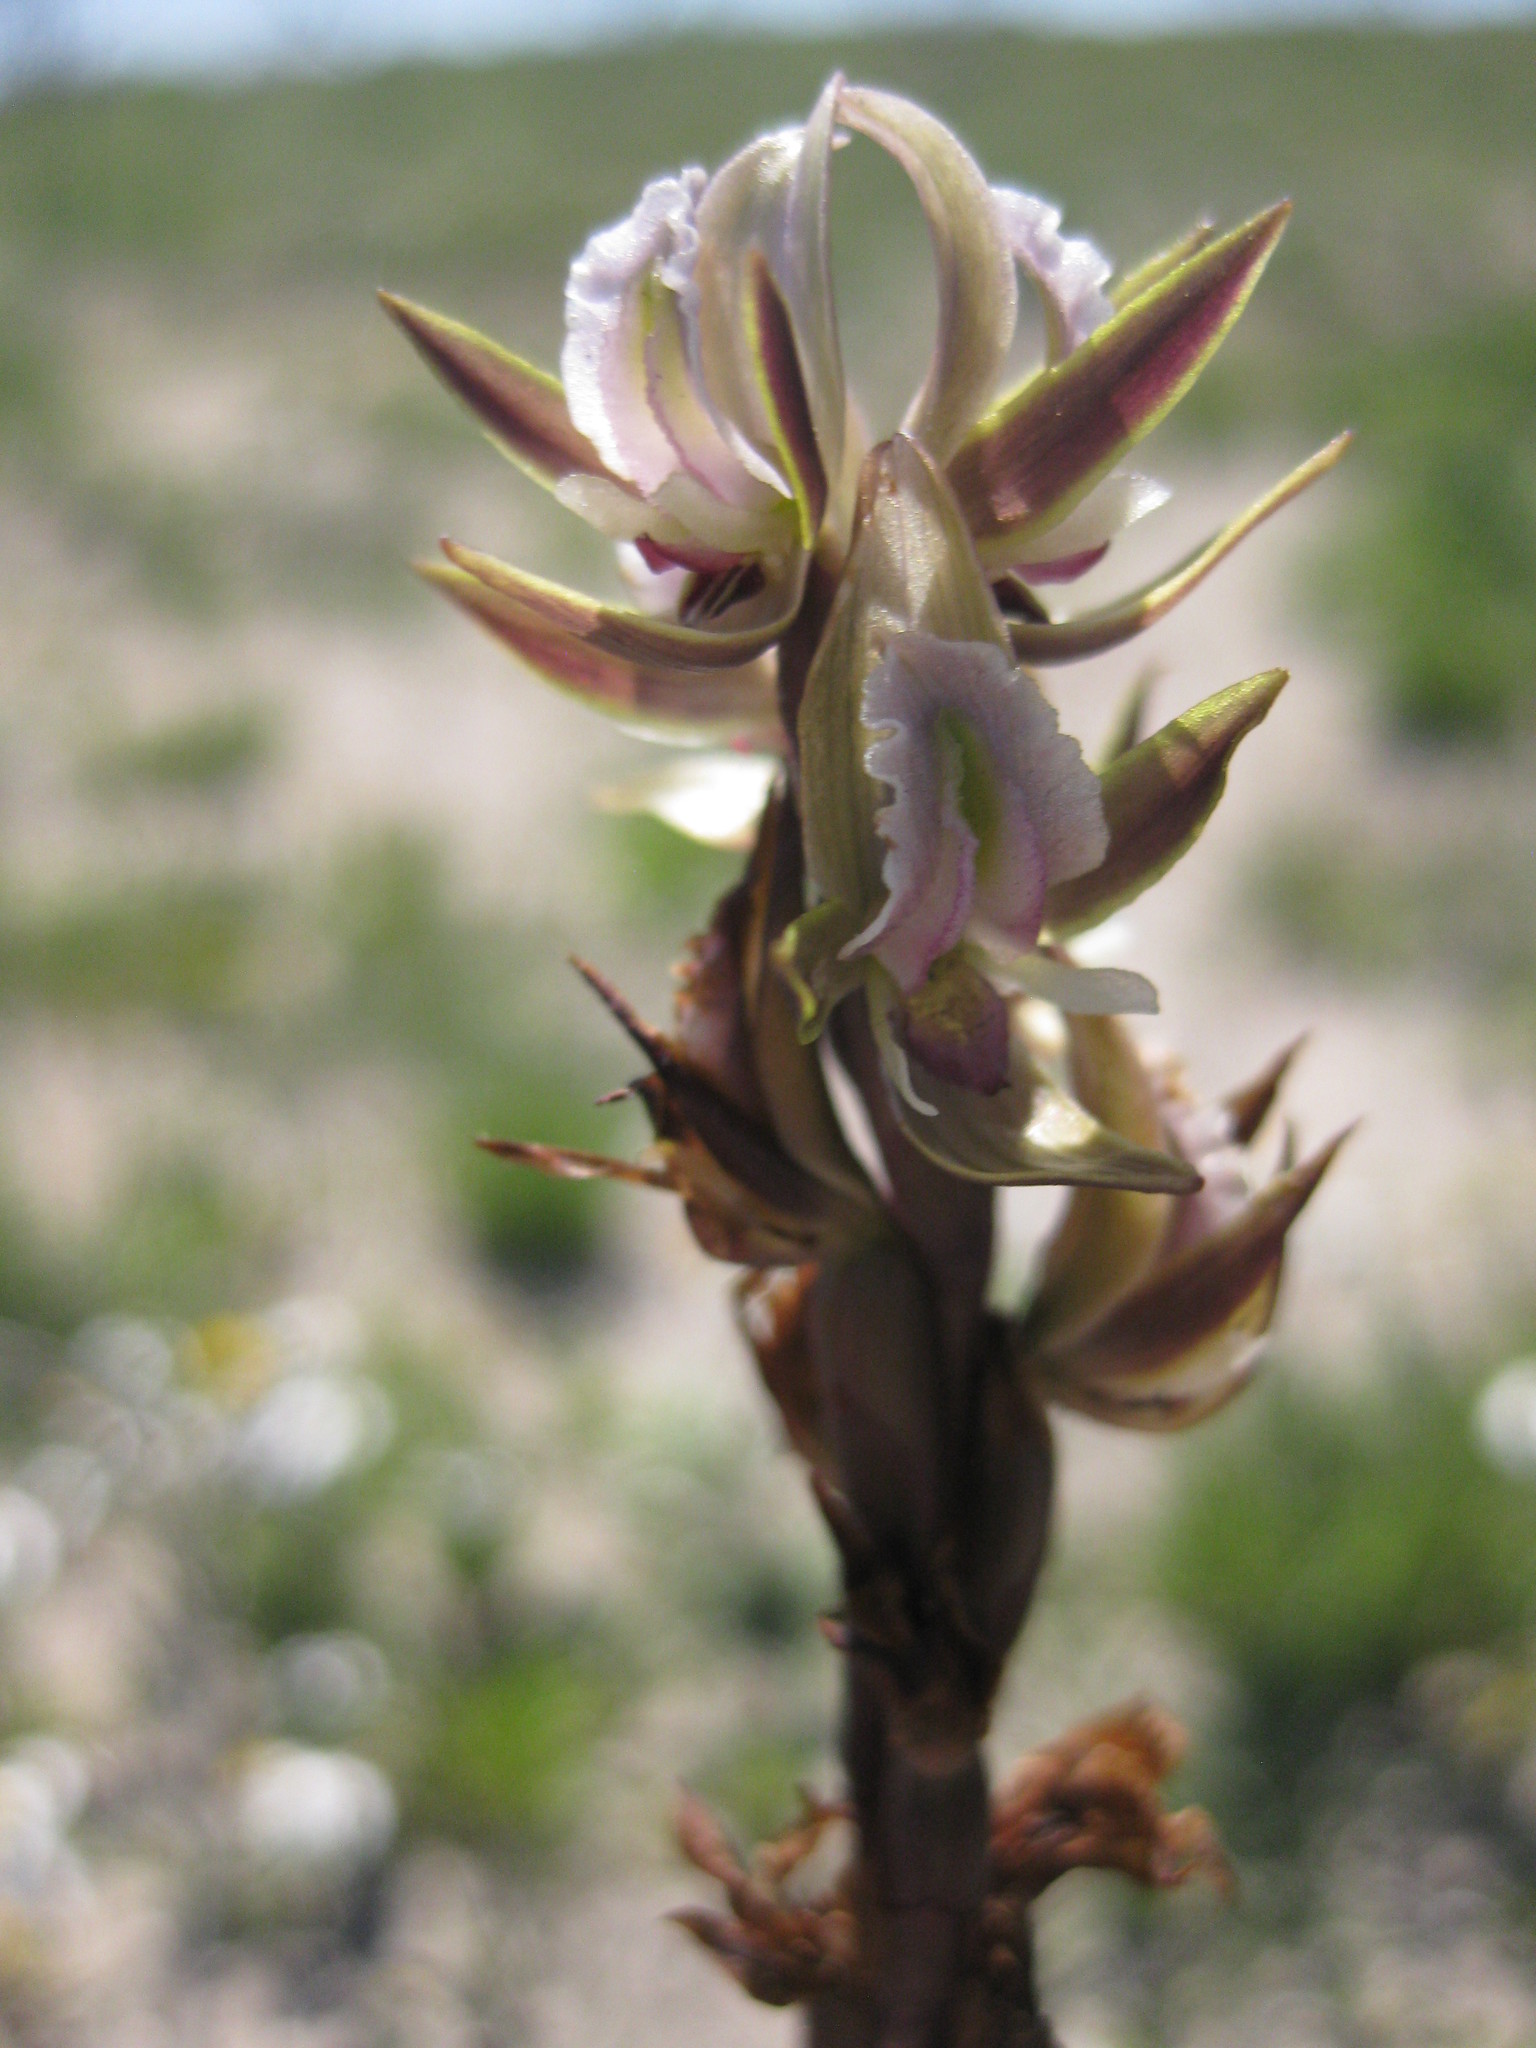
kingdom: Plantae
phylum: Tracheophyta
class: Liliopsida
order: Asparagales
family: Orchidaceae
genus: Prasophyllum
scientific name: Prasophyllum elatum
